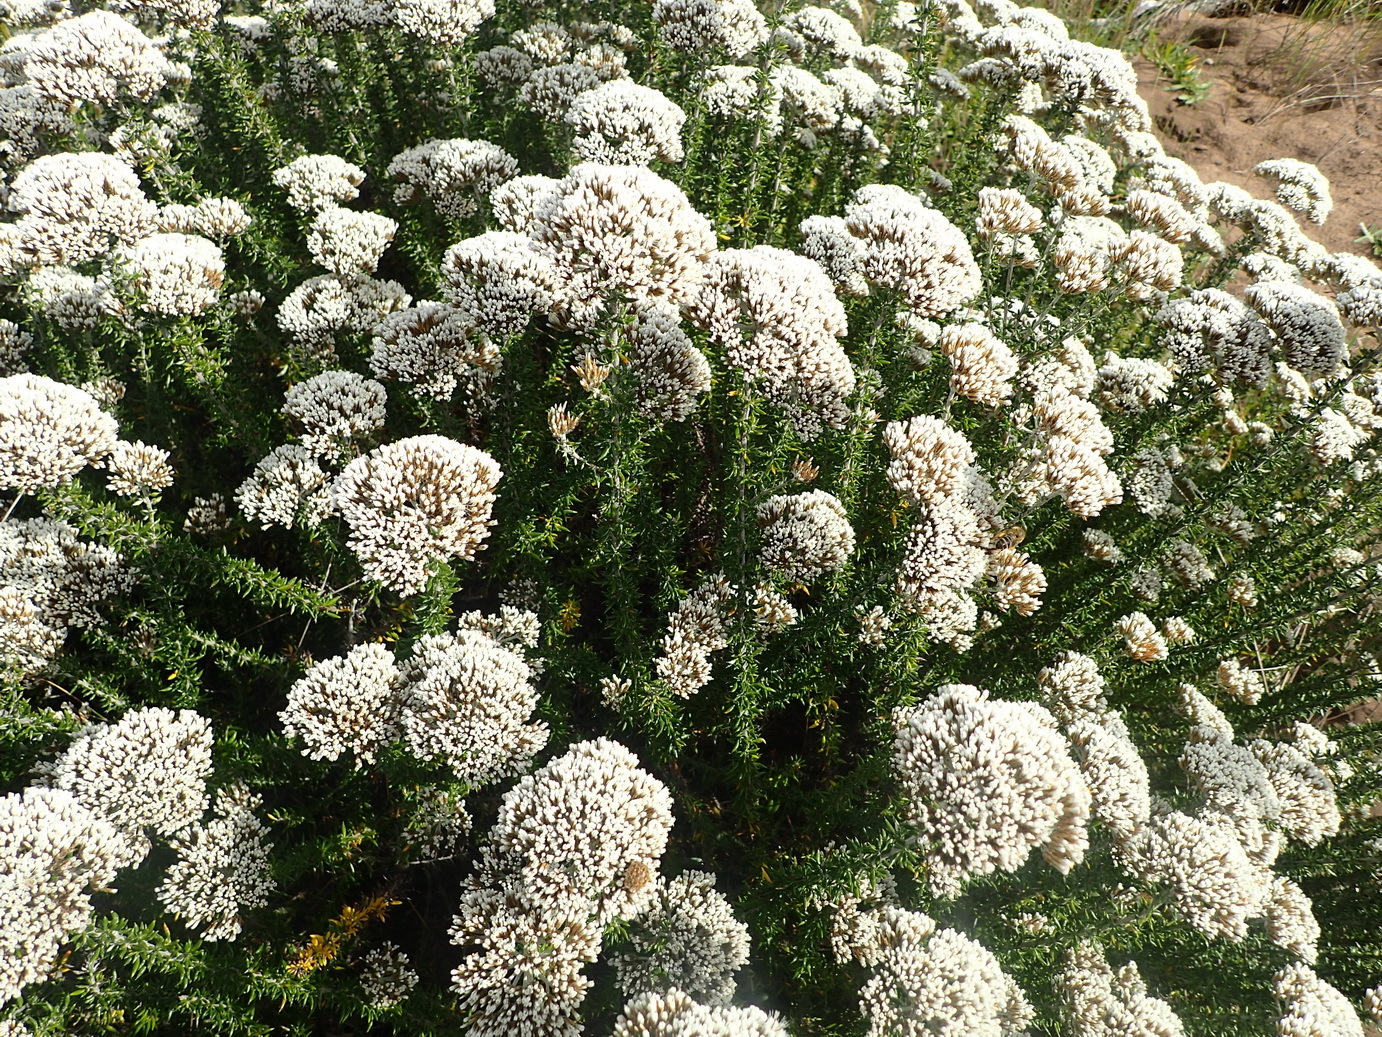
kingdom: Plantae
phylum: Tracheophyta
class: Magnoliopsida
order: Asterales
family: Asteraceae
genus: Metalasia
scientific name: Metalasia muricata
